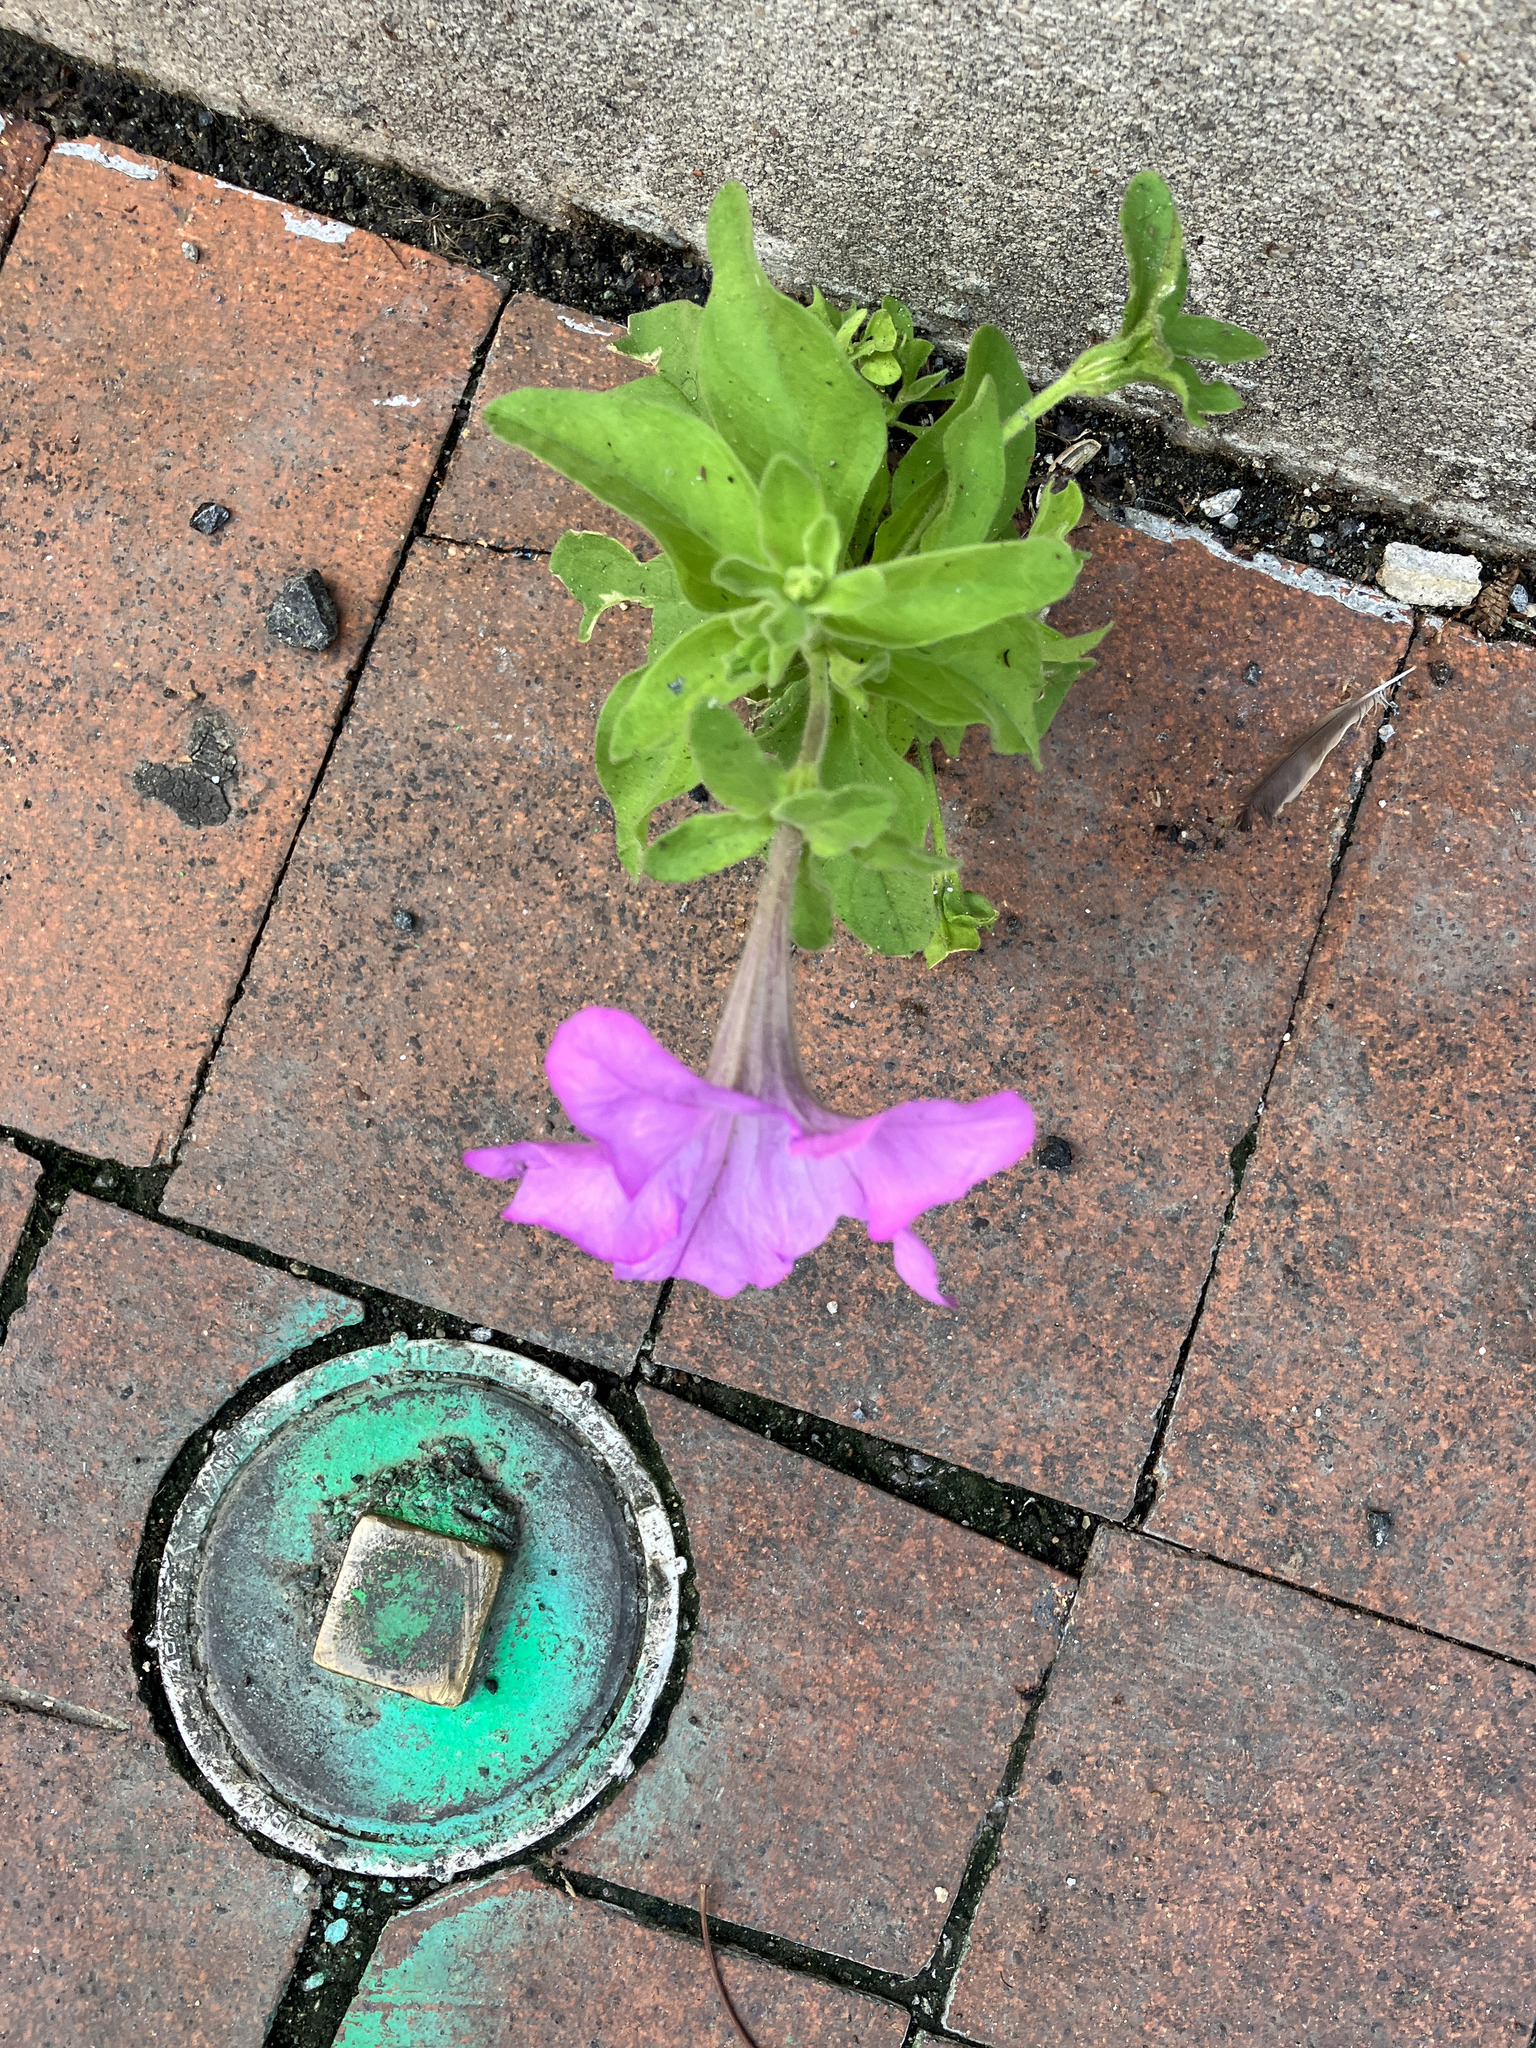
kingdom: Plantae
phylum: Tracheophyta
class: Magnoliopsida
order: Solanales
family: Solanaceae
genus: Petunia
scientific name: Petunia atkinsiana
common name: Petunia
